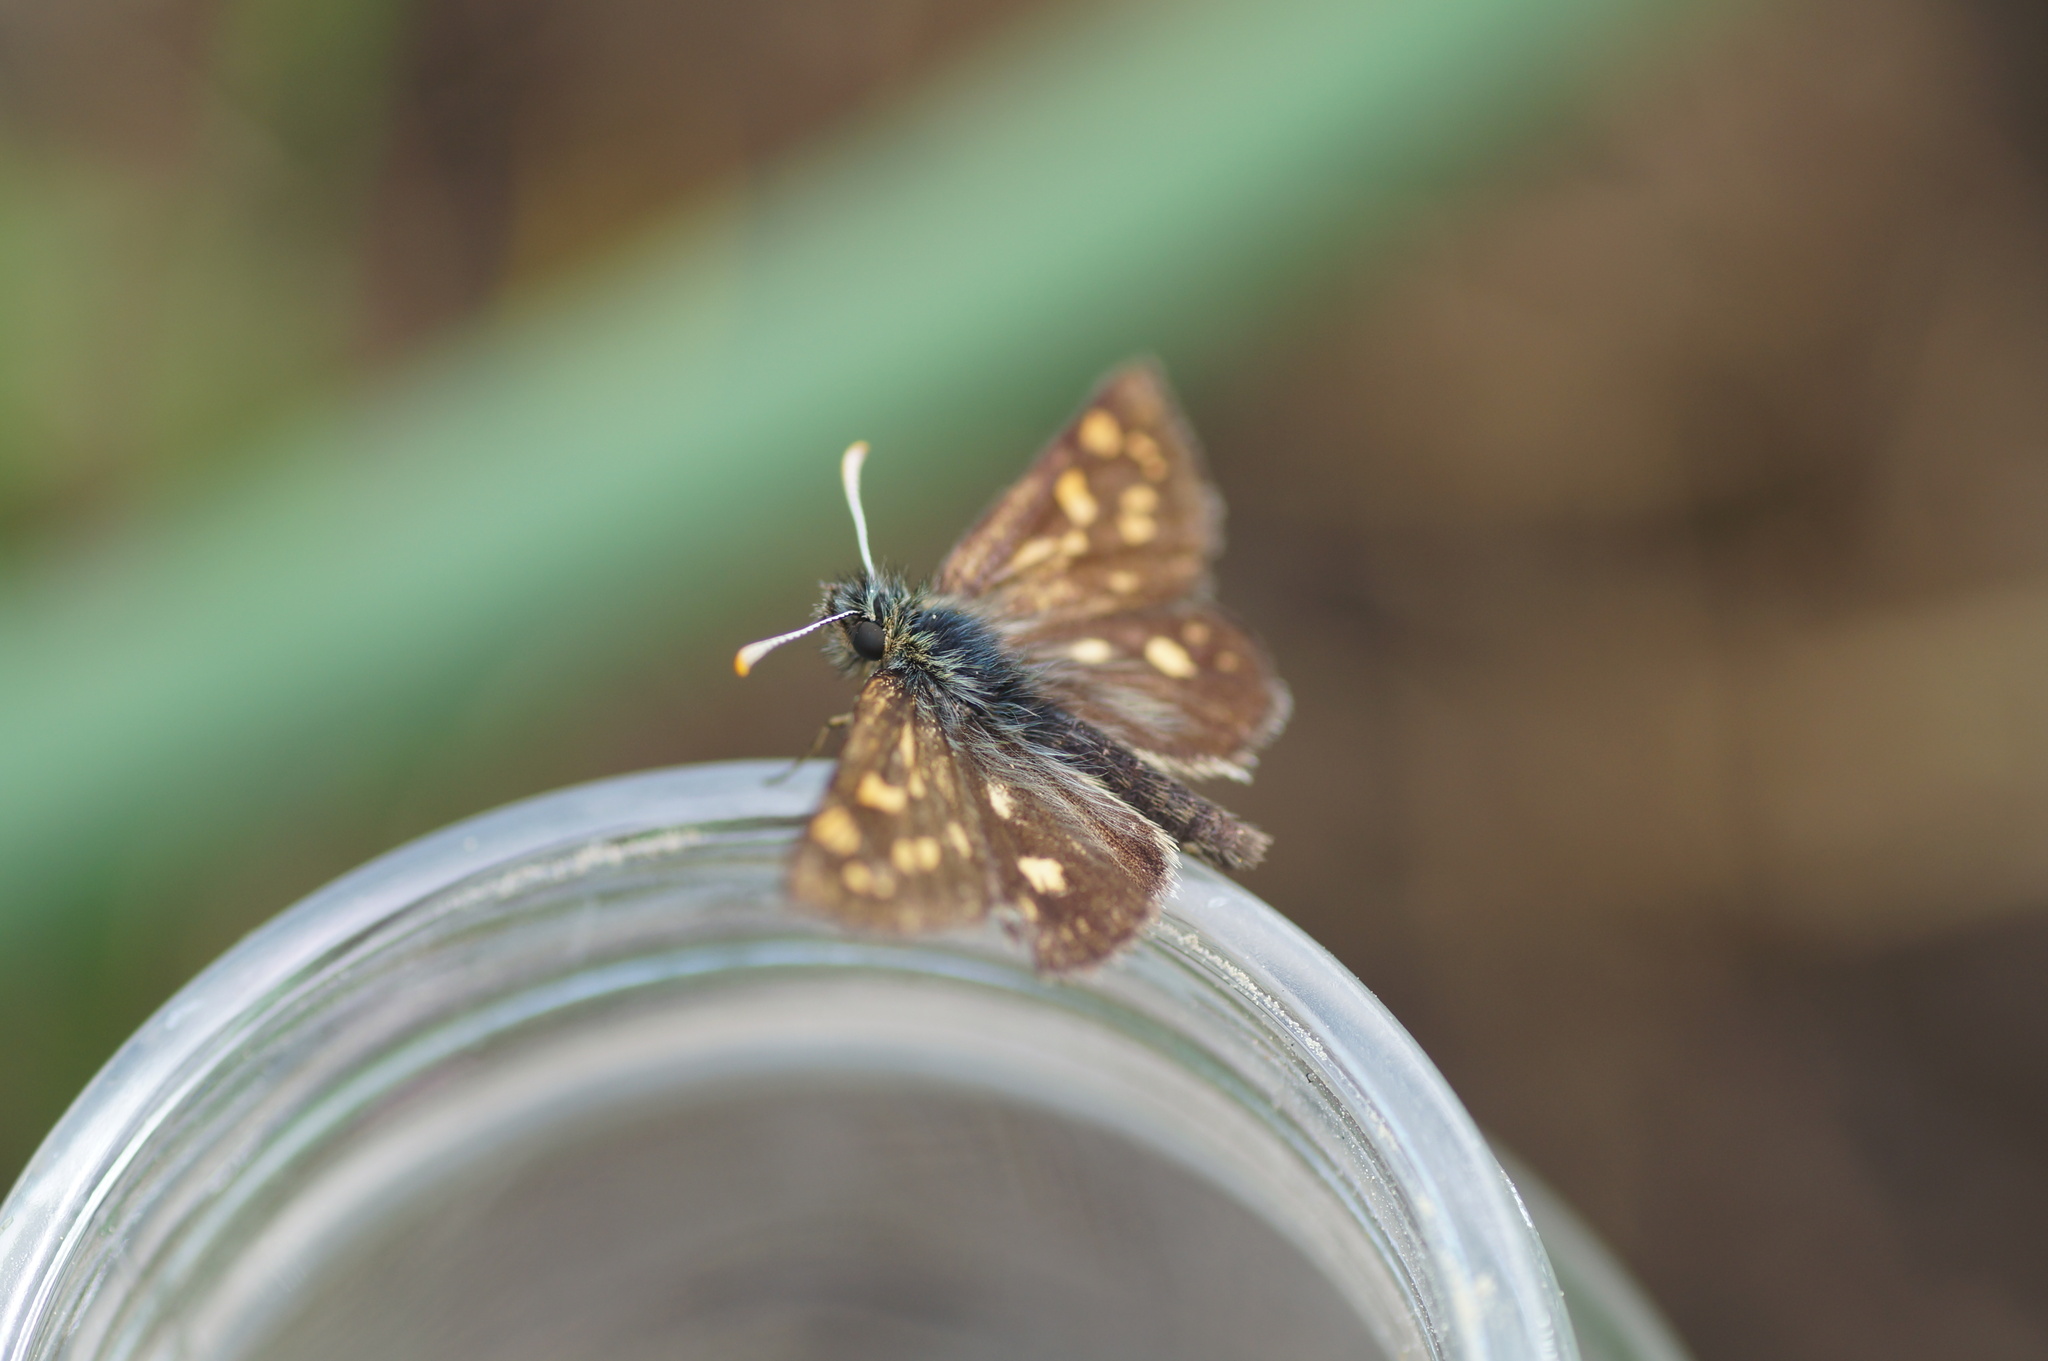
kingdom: Animalia
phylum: Arthropoda
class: Insecta
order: Lepidoptera
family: Hesperiidae
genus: Carterocephalus
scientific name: Carterocephalus palaemon
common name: Chequered skipper
